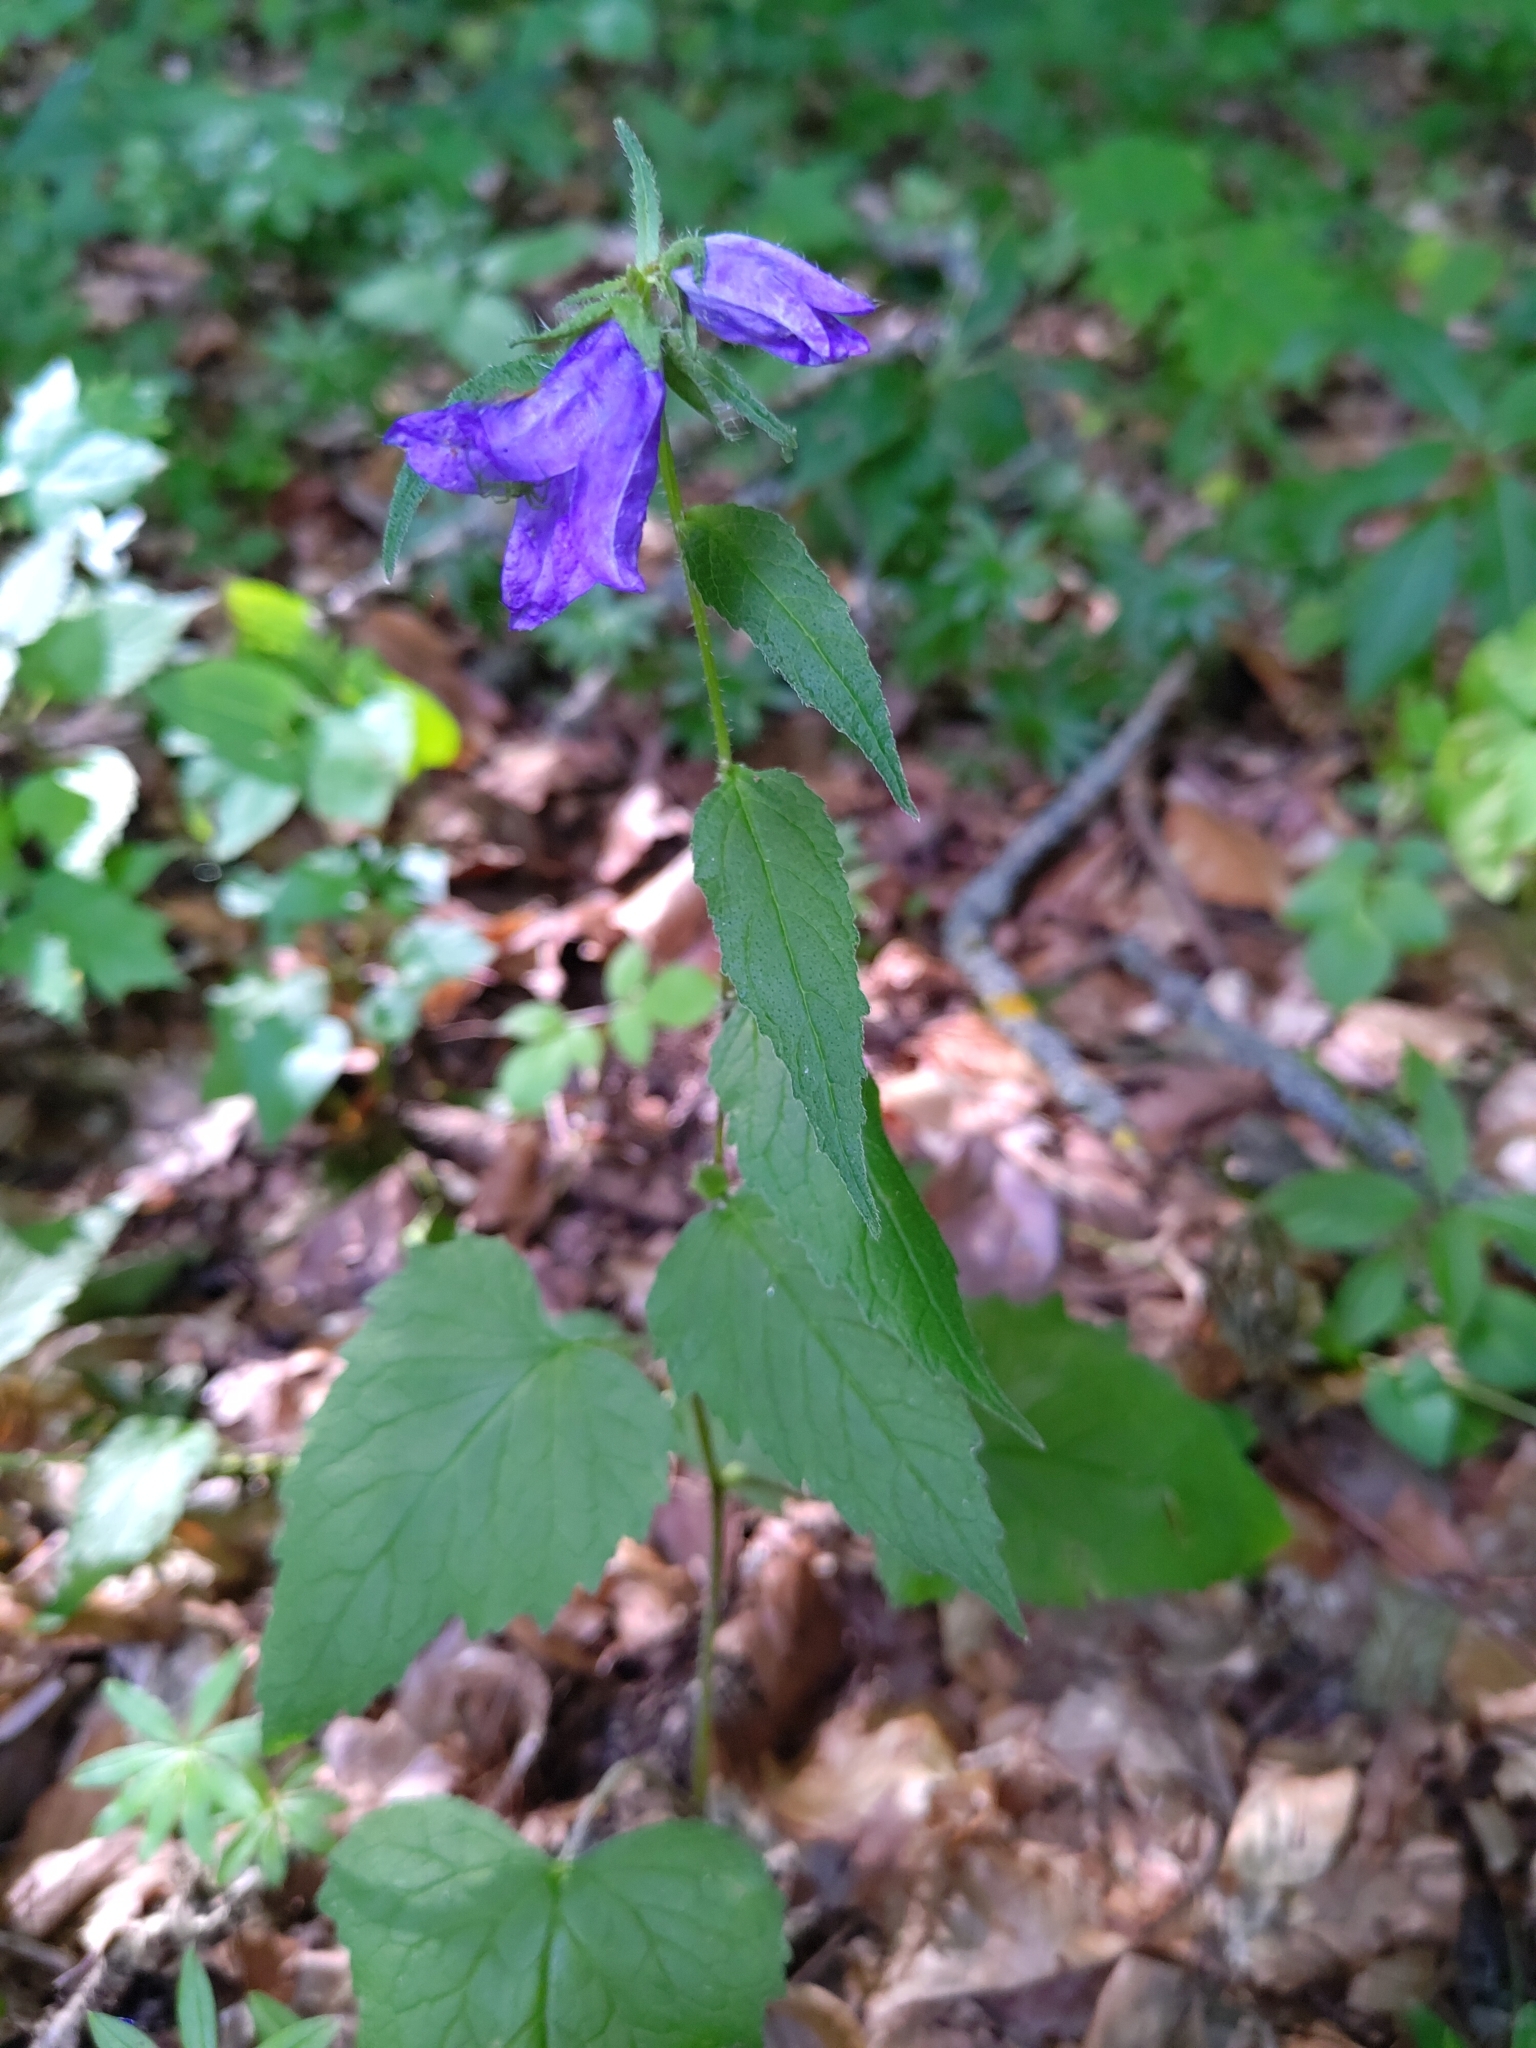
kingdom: Plantae
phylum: Tracheophyta
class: Magnoliopsida
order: Asterales
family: Campanulaceae
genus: Campanula
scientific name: Campanula trachelium
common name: Nettle-leaved bellflower
